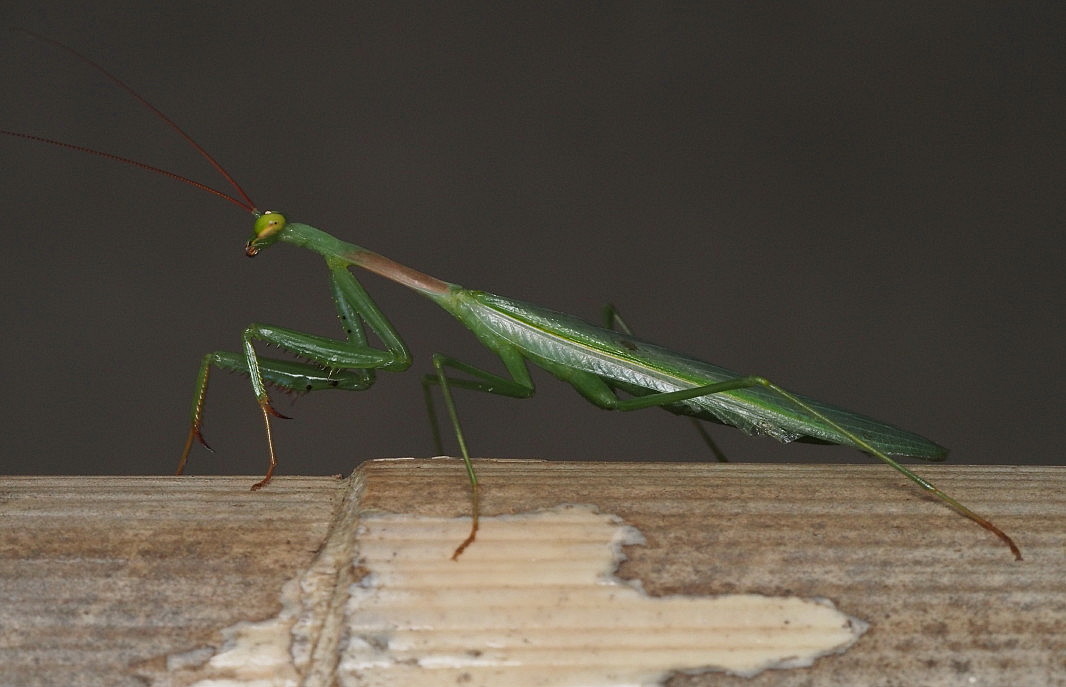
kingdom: Animalia
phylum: Arthropoda
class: Insecta
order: Mantodea
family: Miomantidae
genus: Miomantis
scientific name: Miomantis caffra
